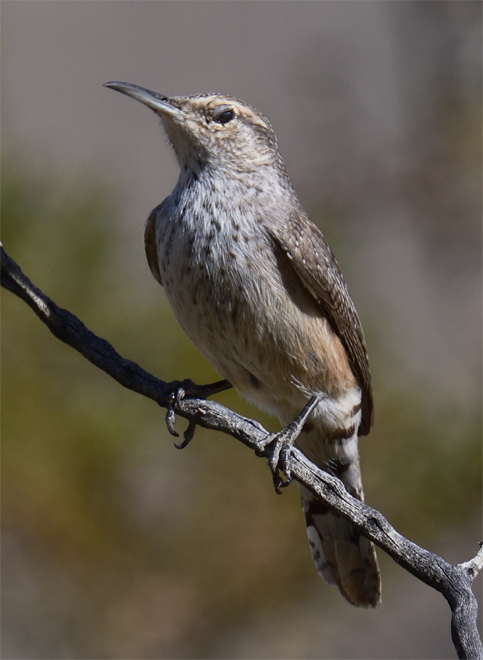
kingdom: Animalia
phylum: Chordata
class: Aves
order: Passeriformes
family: Troglodytidae
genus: Salpinctes
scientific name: Salpinctes obsoletus
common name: Rock wren
